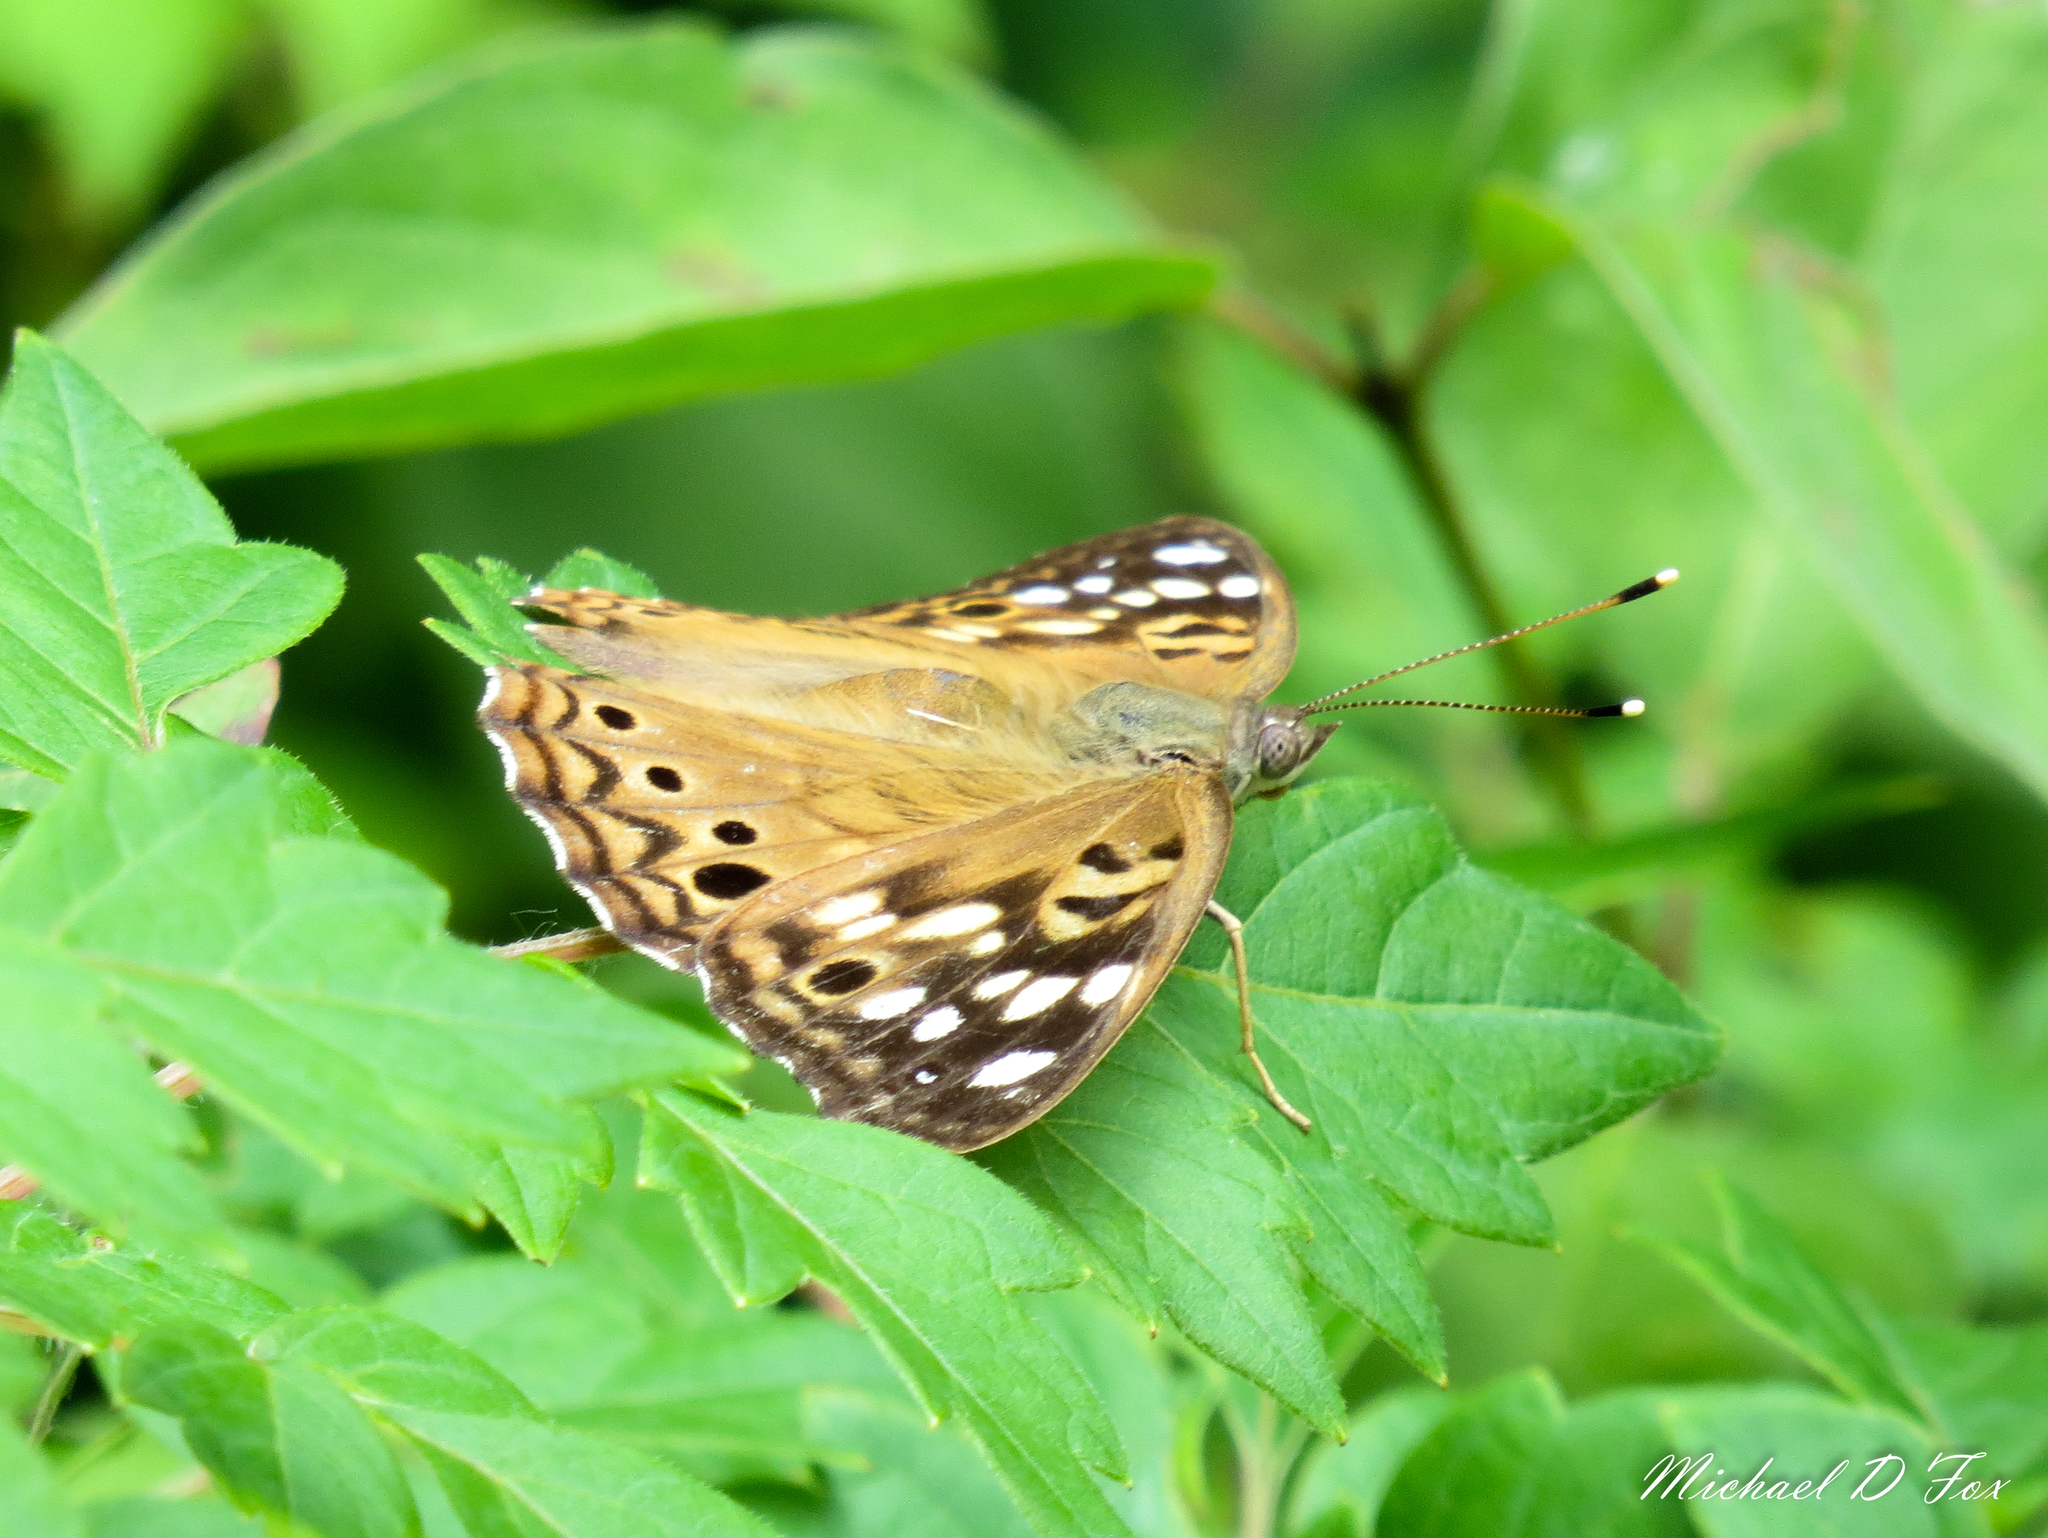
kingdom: Animalia
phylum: Arthropoda
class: Insecta
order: Lepidoptera
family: Nymphalidae
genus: Asterocampa
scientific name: Asterocampa celtis
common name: Hackberry emperor
